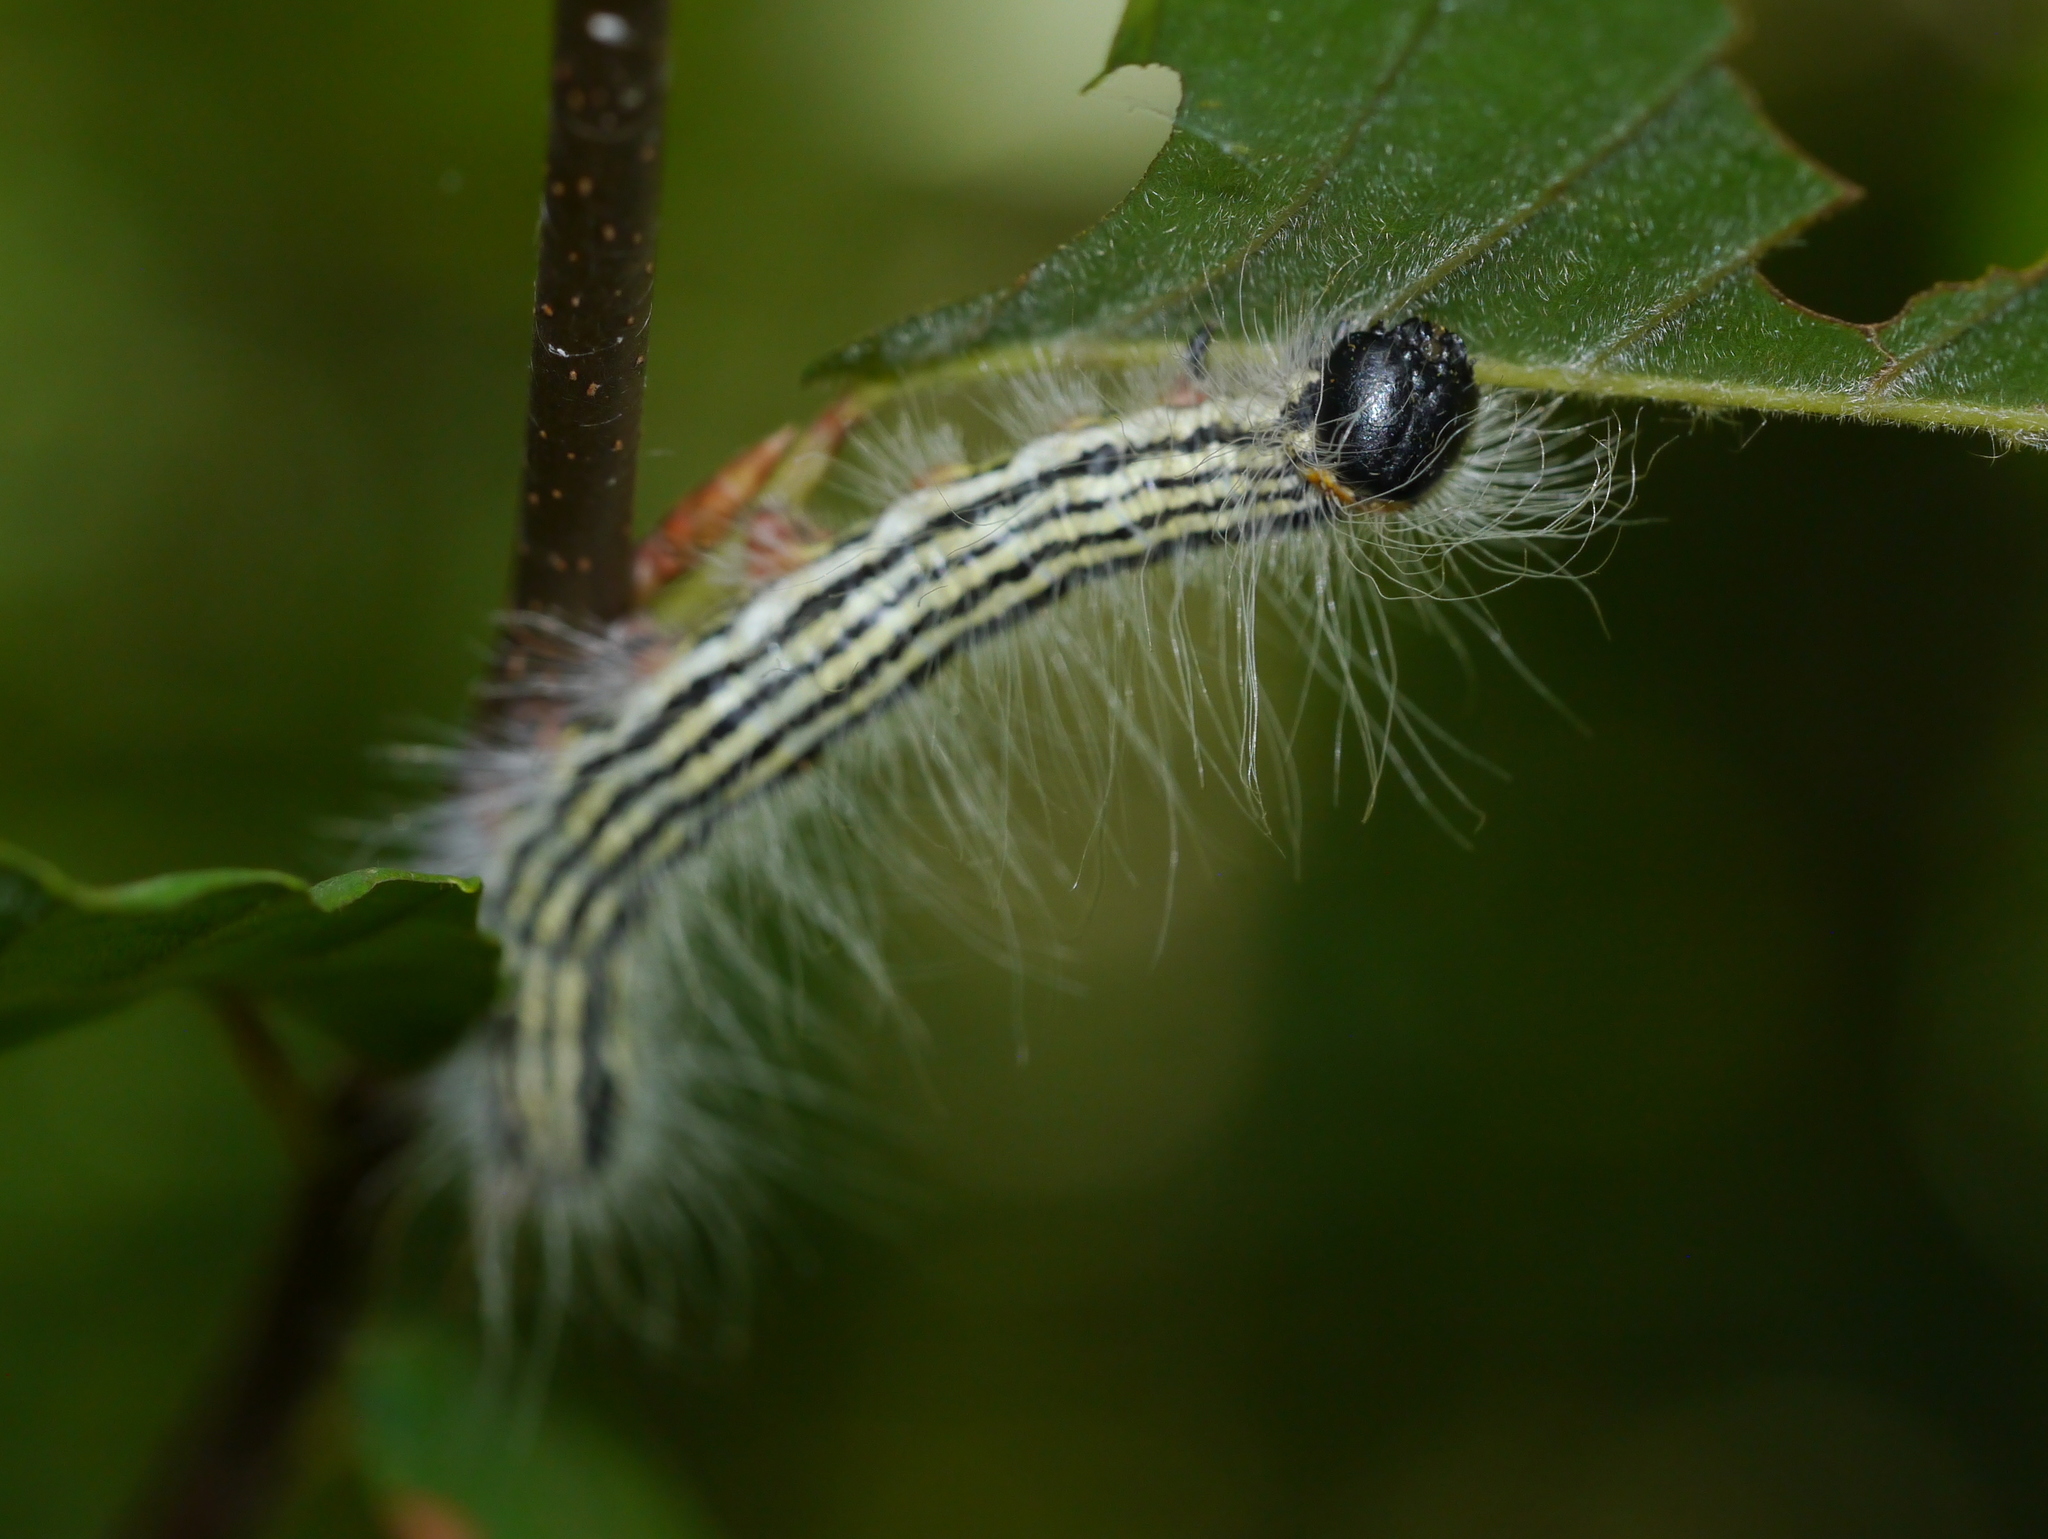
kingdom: Animalia
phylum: Arthropoda
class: Insecta
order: Lepidoptera
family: Notodontidae
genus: Datana
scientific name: Datana contracta
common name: Contracted datana
